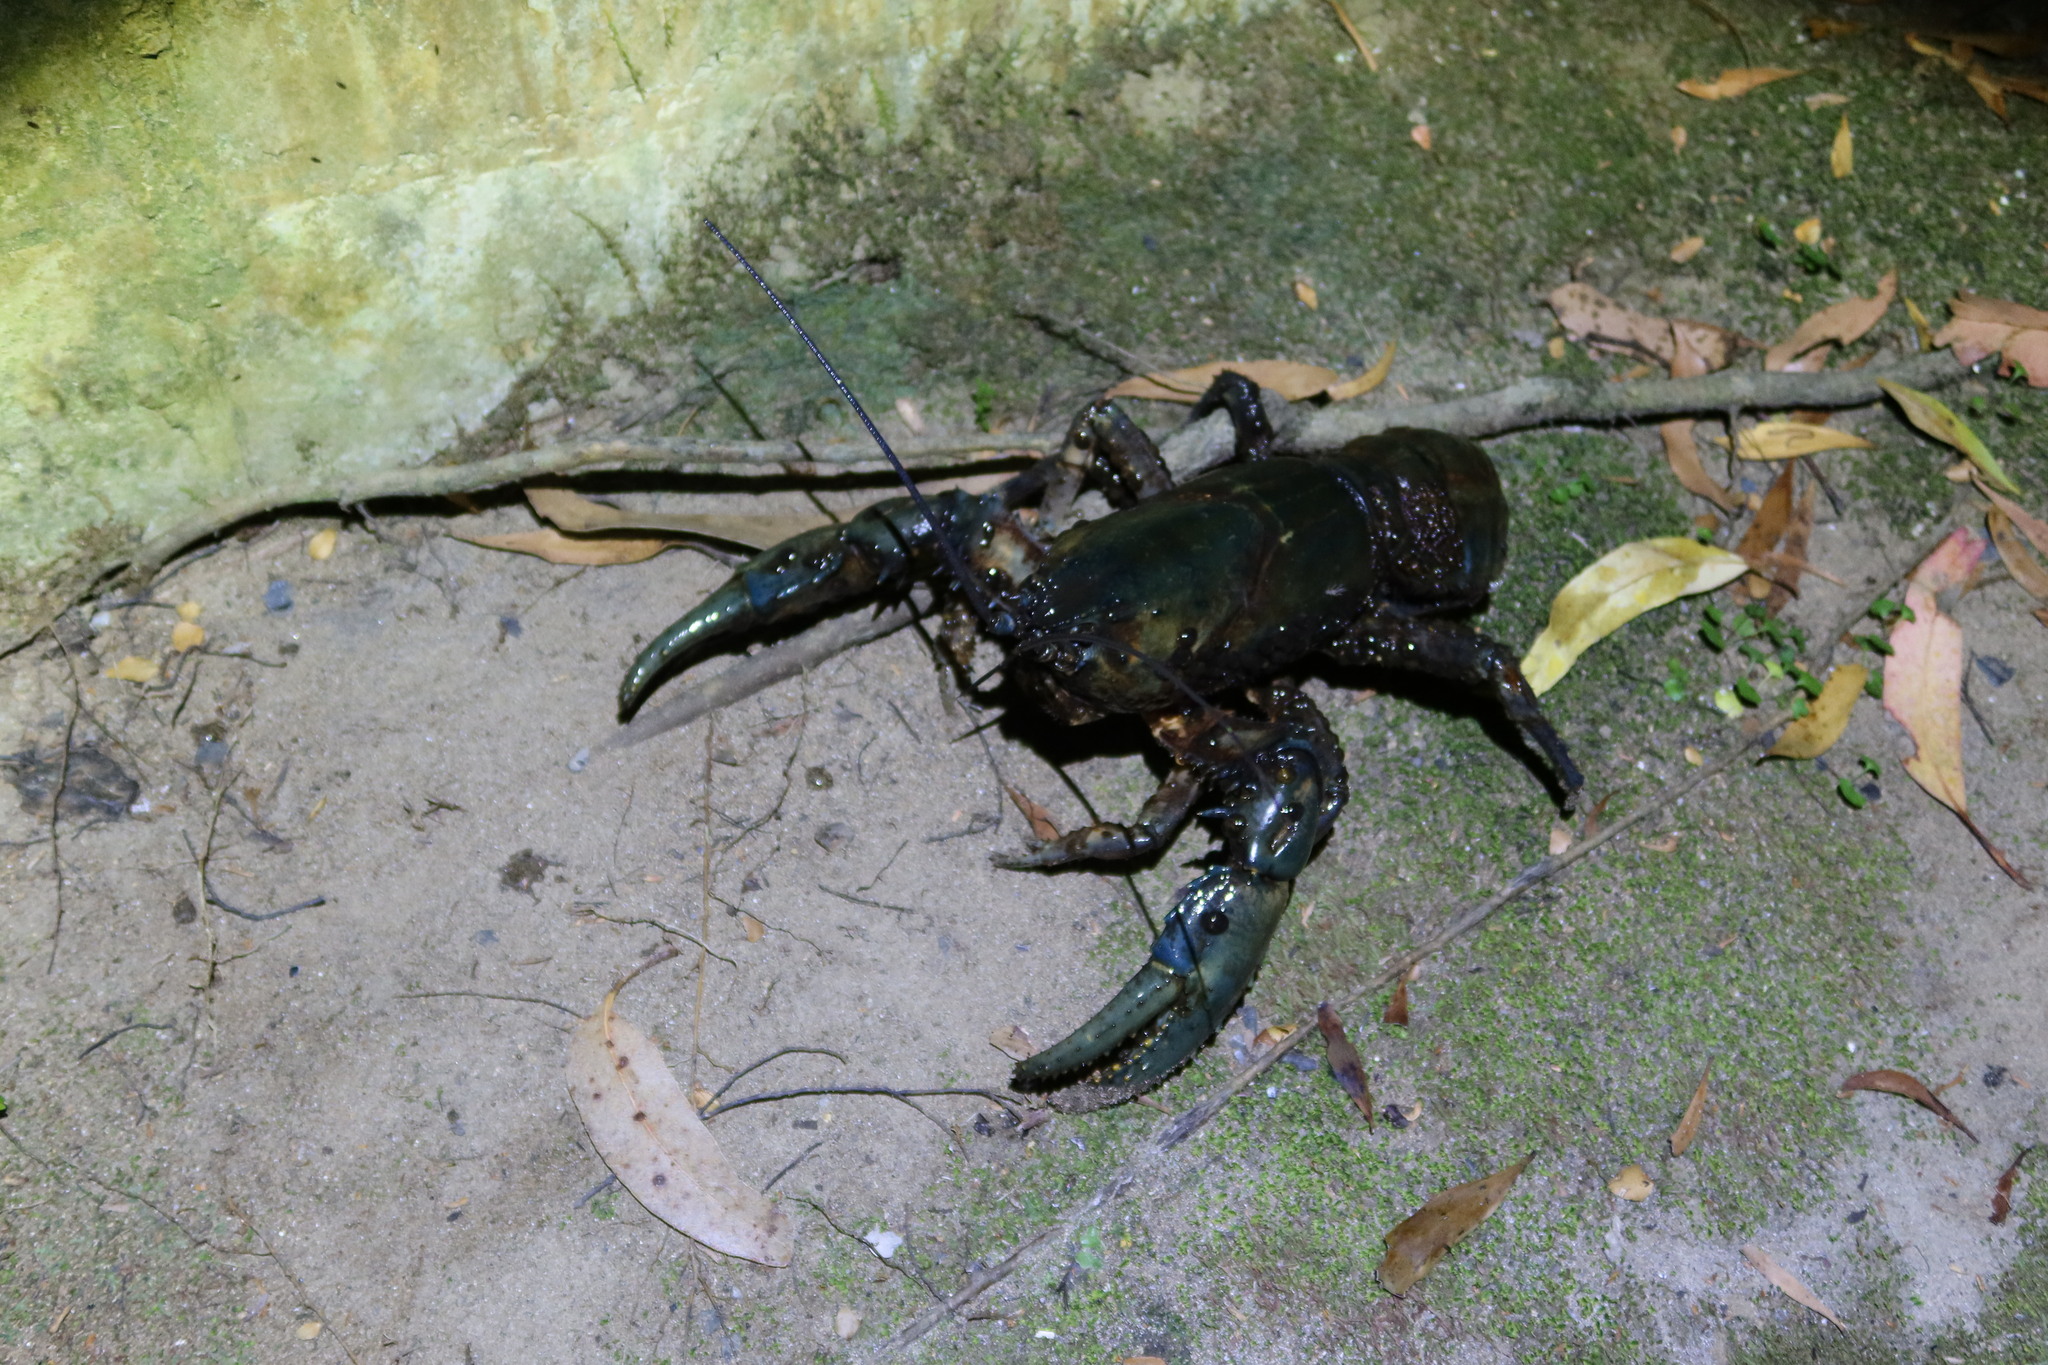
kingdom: Animalia
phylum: Arthropoda
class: Malacostraca
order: Decapoda
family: Parastacidae
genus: Astacopsis
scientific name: Astacopsis gouldi
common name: Giant freshwater crayfish
